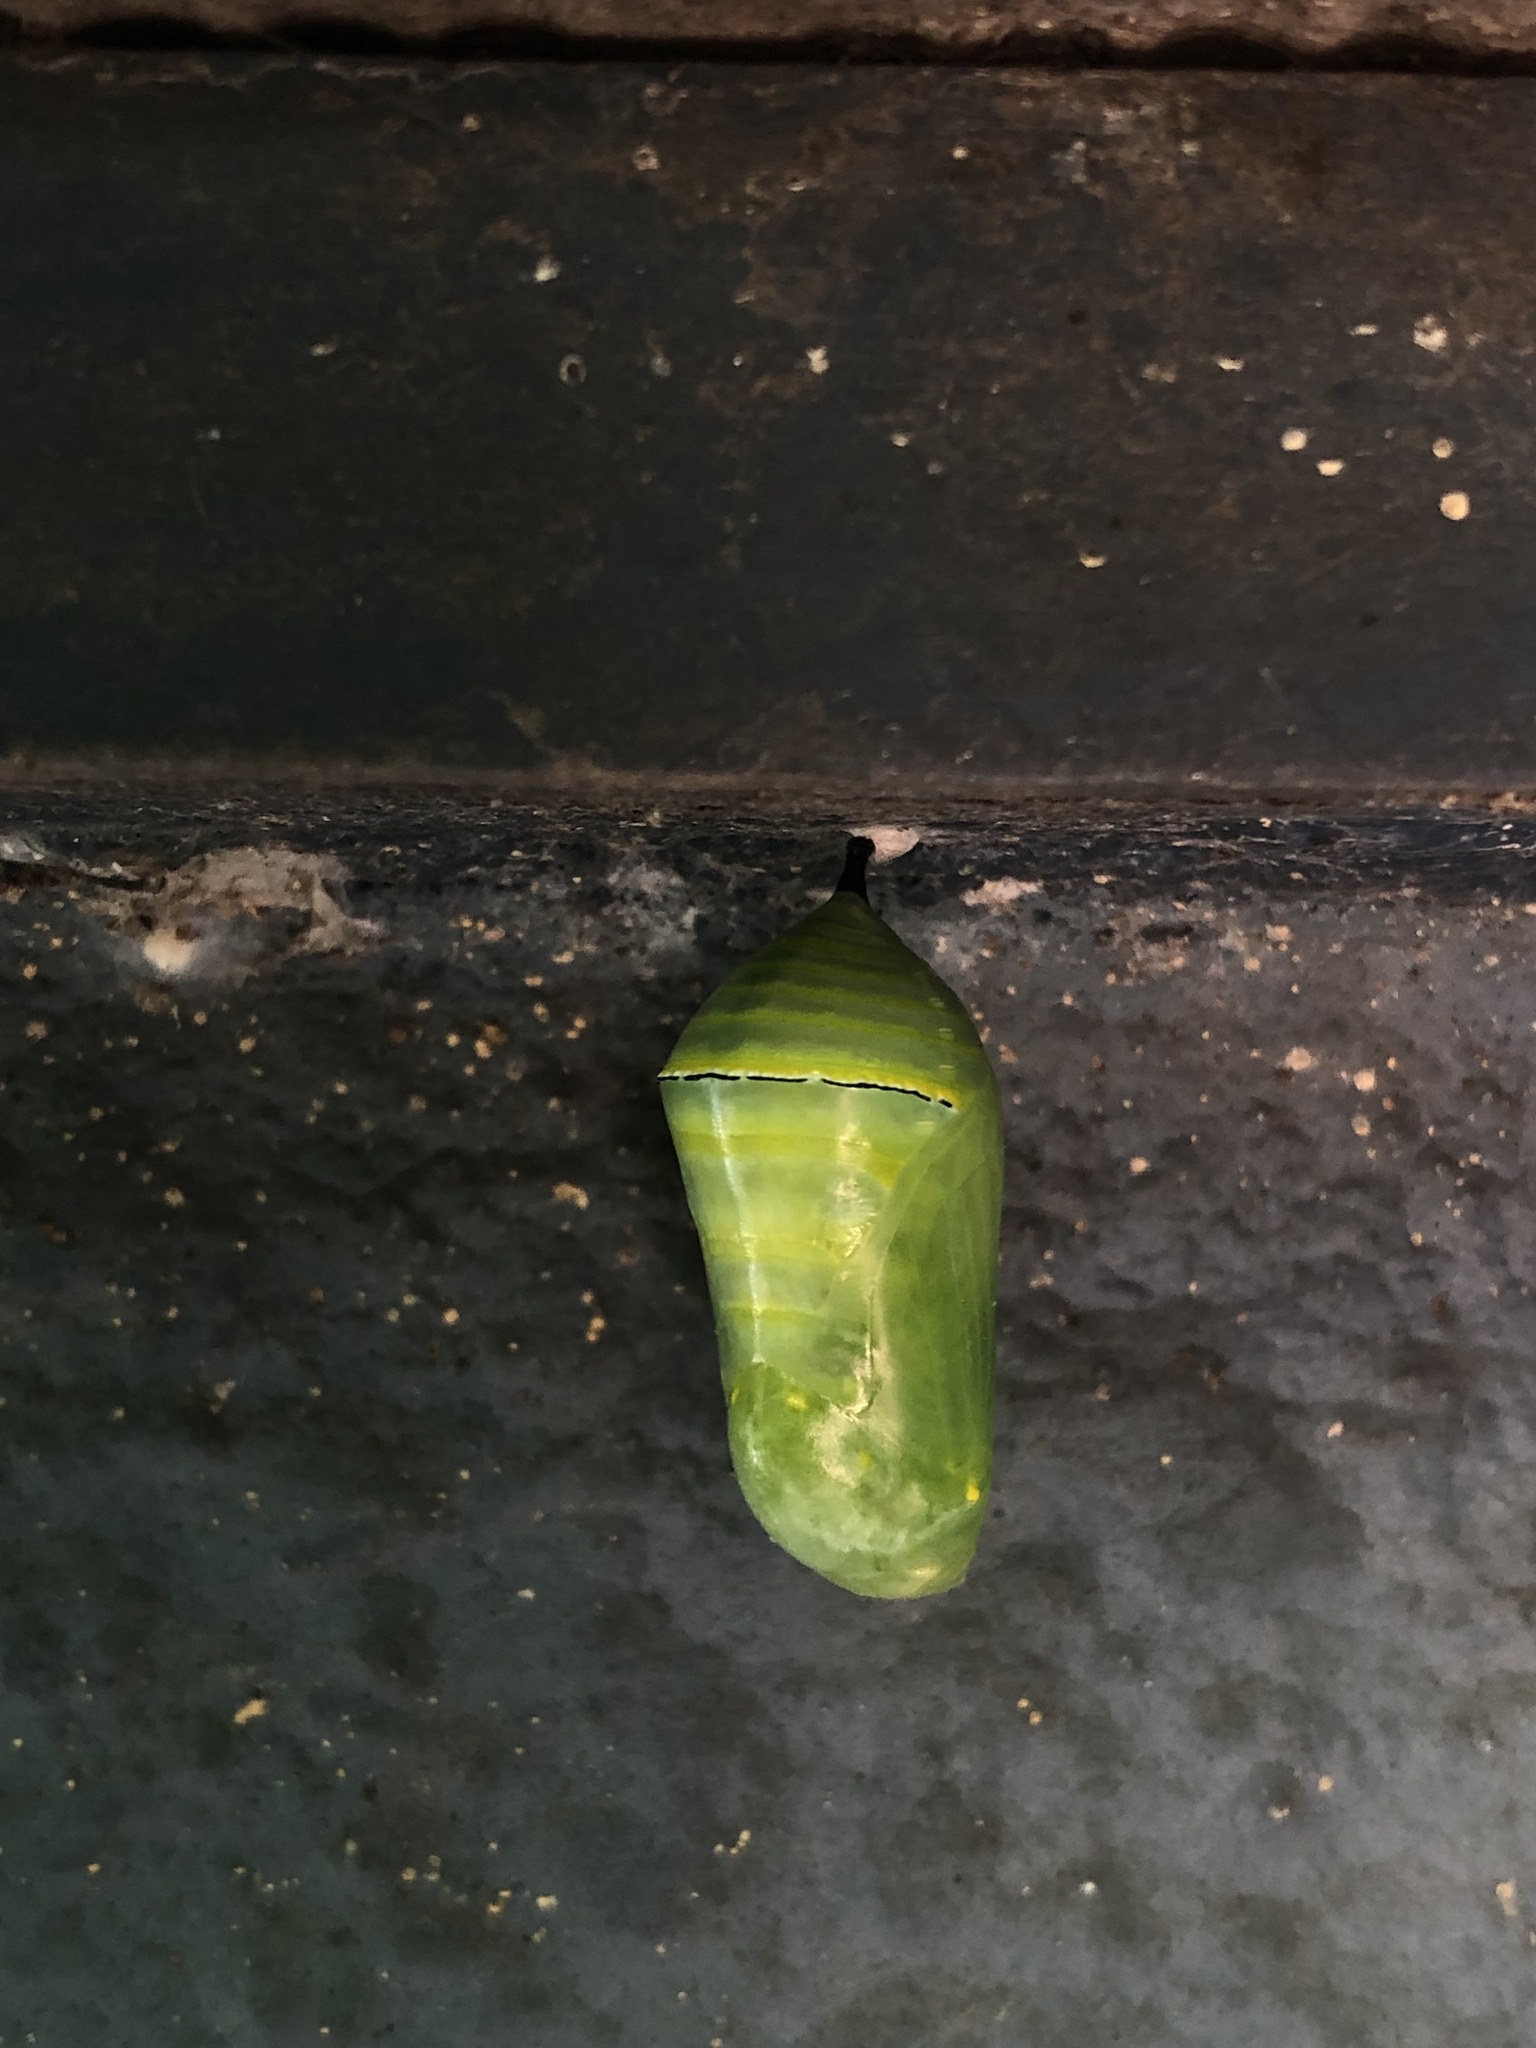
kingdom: Animalia
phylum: Arthropoda
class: Insecta
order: Lepidoptera
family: Nymphalidae
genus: Danaus
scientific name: Danaus erippus
